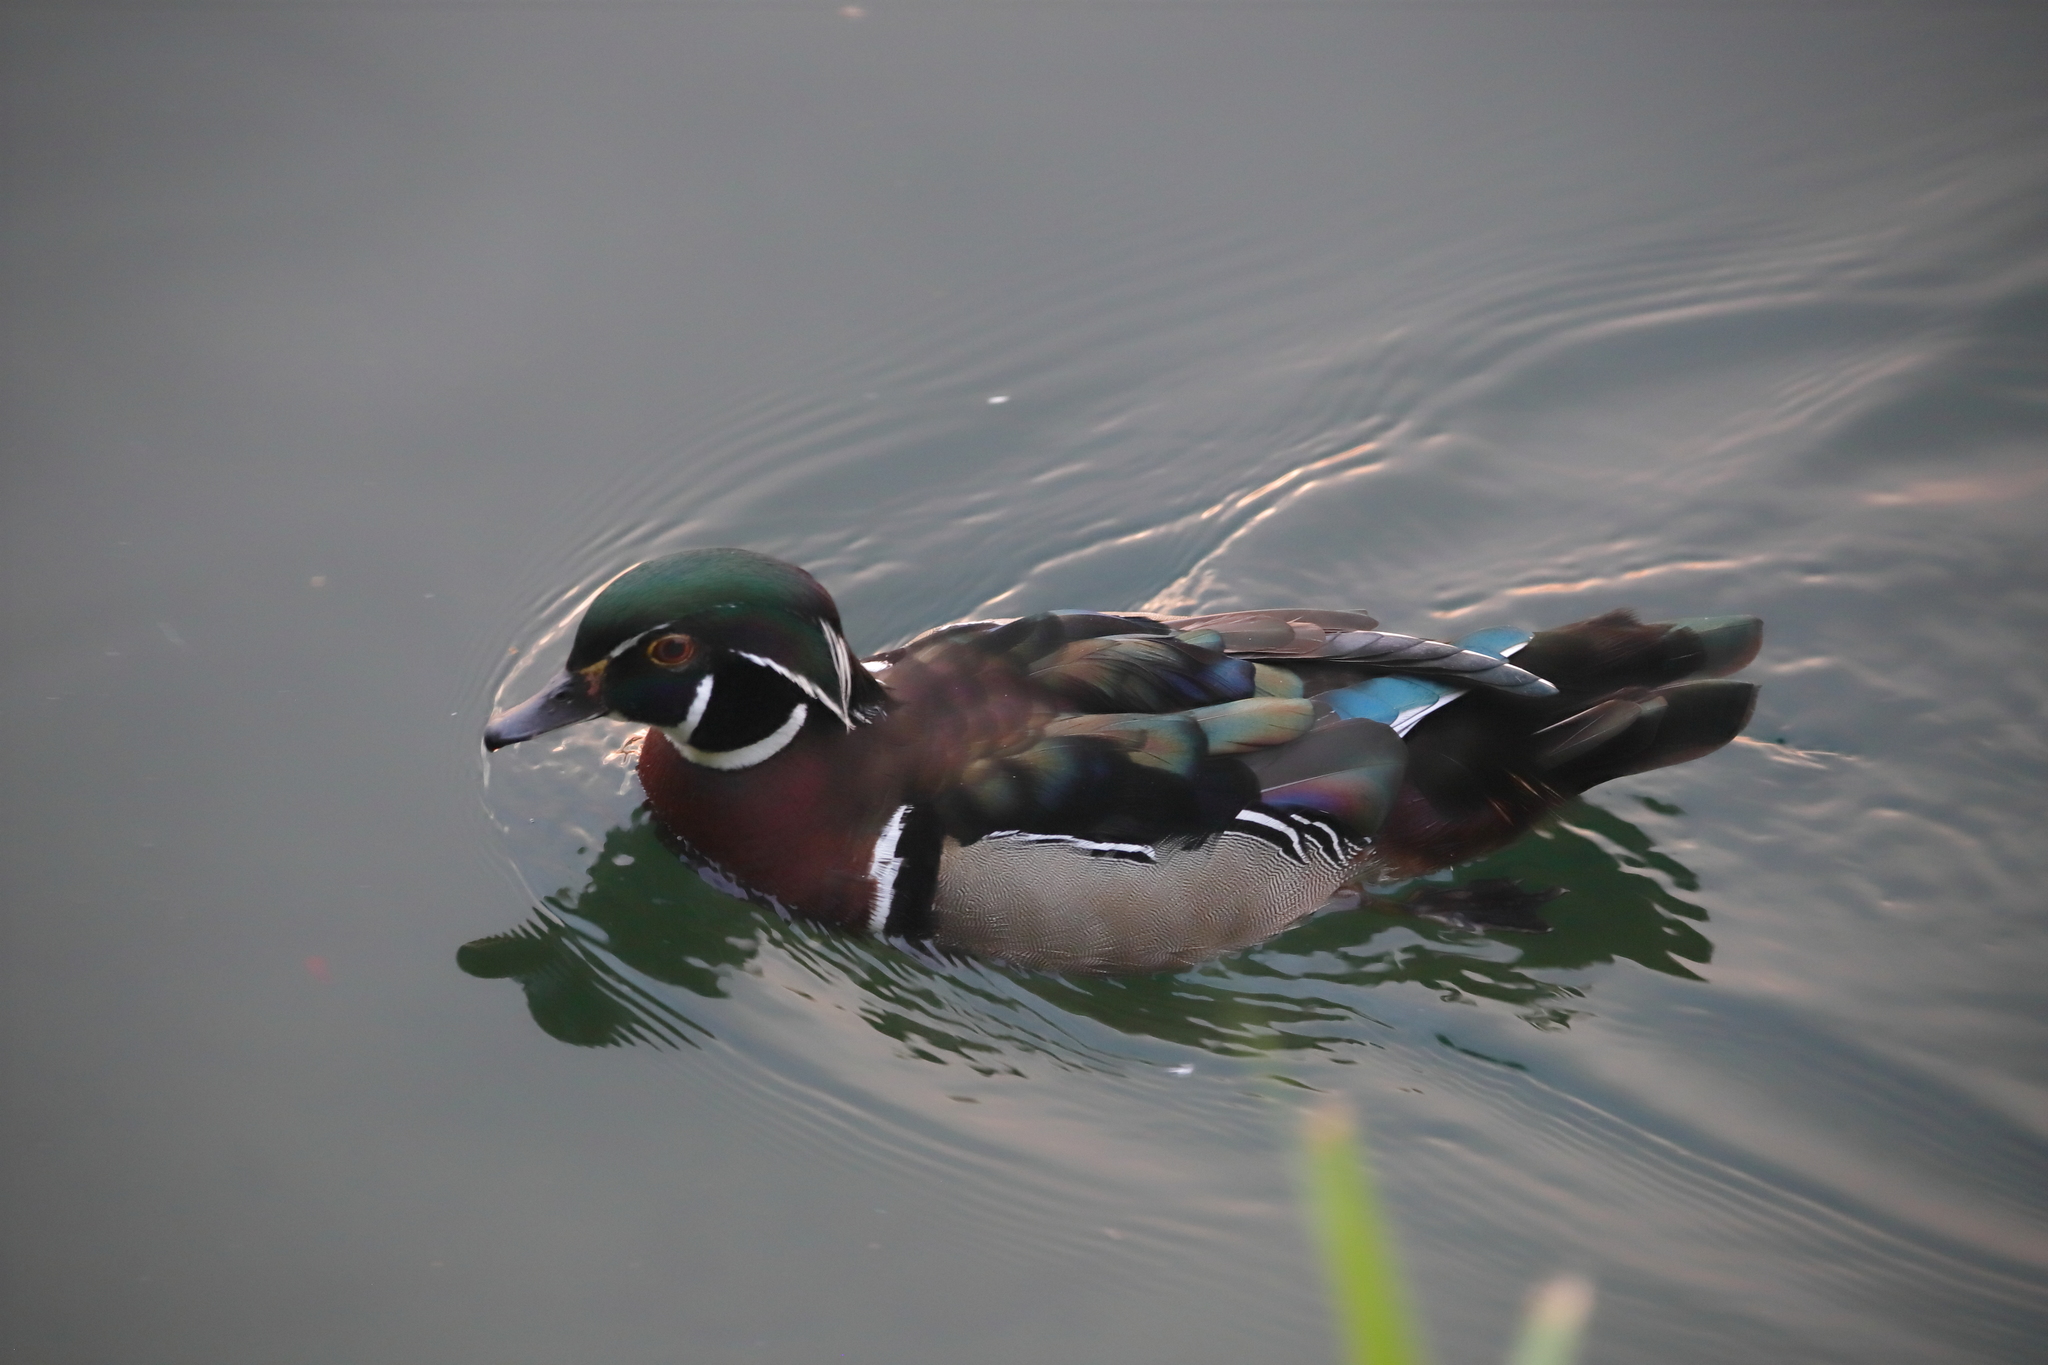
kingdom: Animalia
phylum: Chordata
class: Aves
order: Anseriformes
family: Anatidae
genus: Aix
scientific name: Aix sponsa
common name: Wood duck
